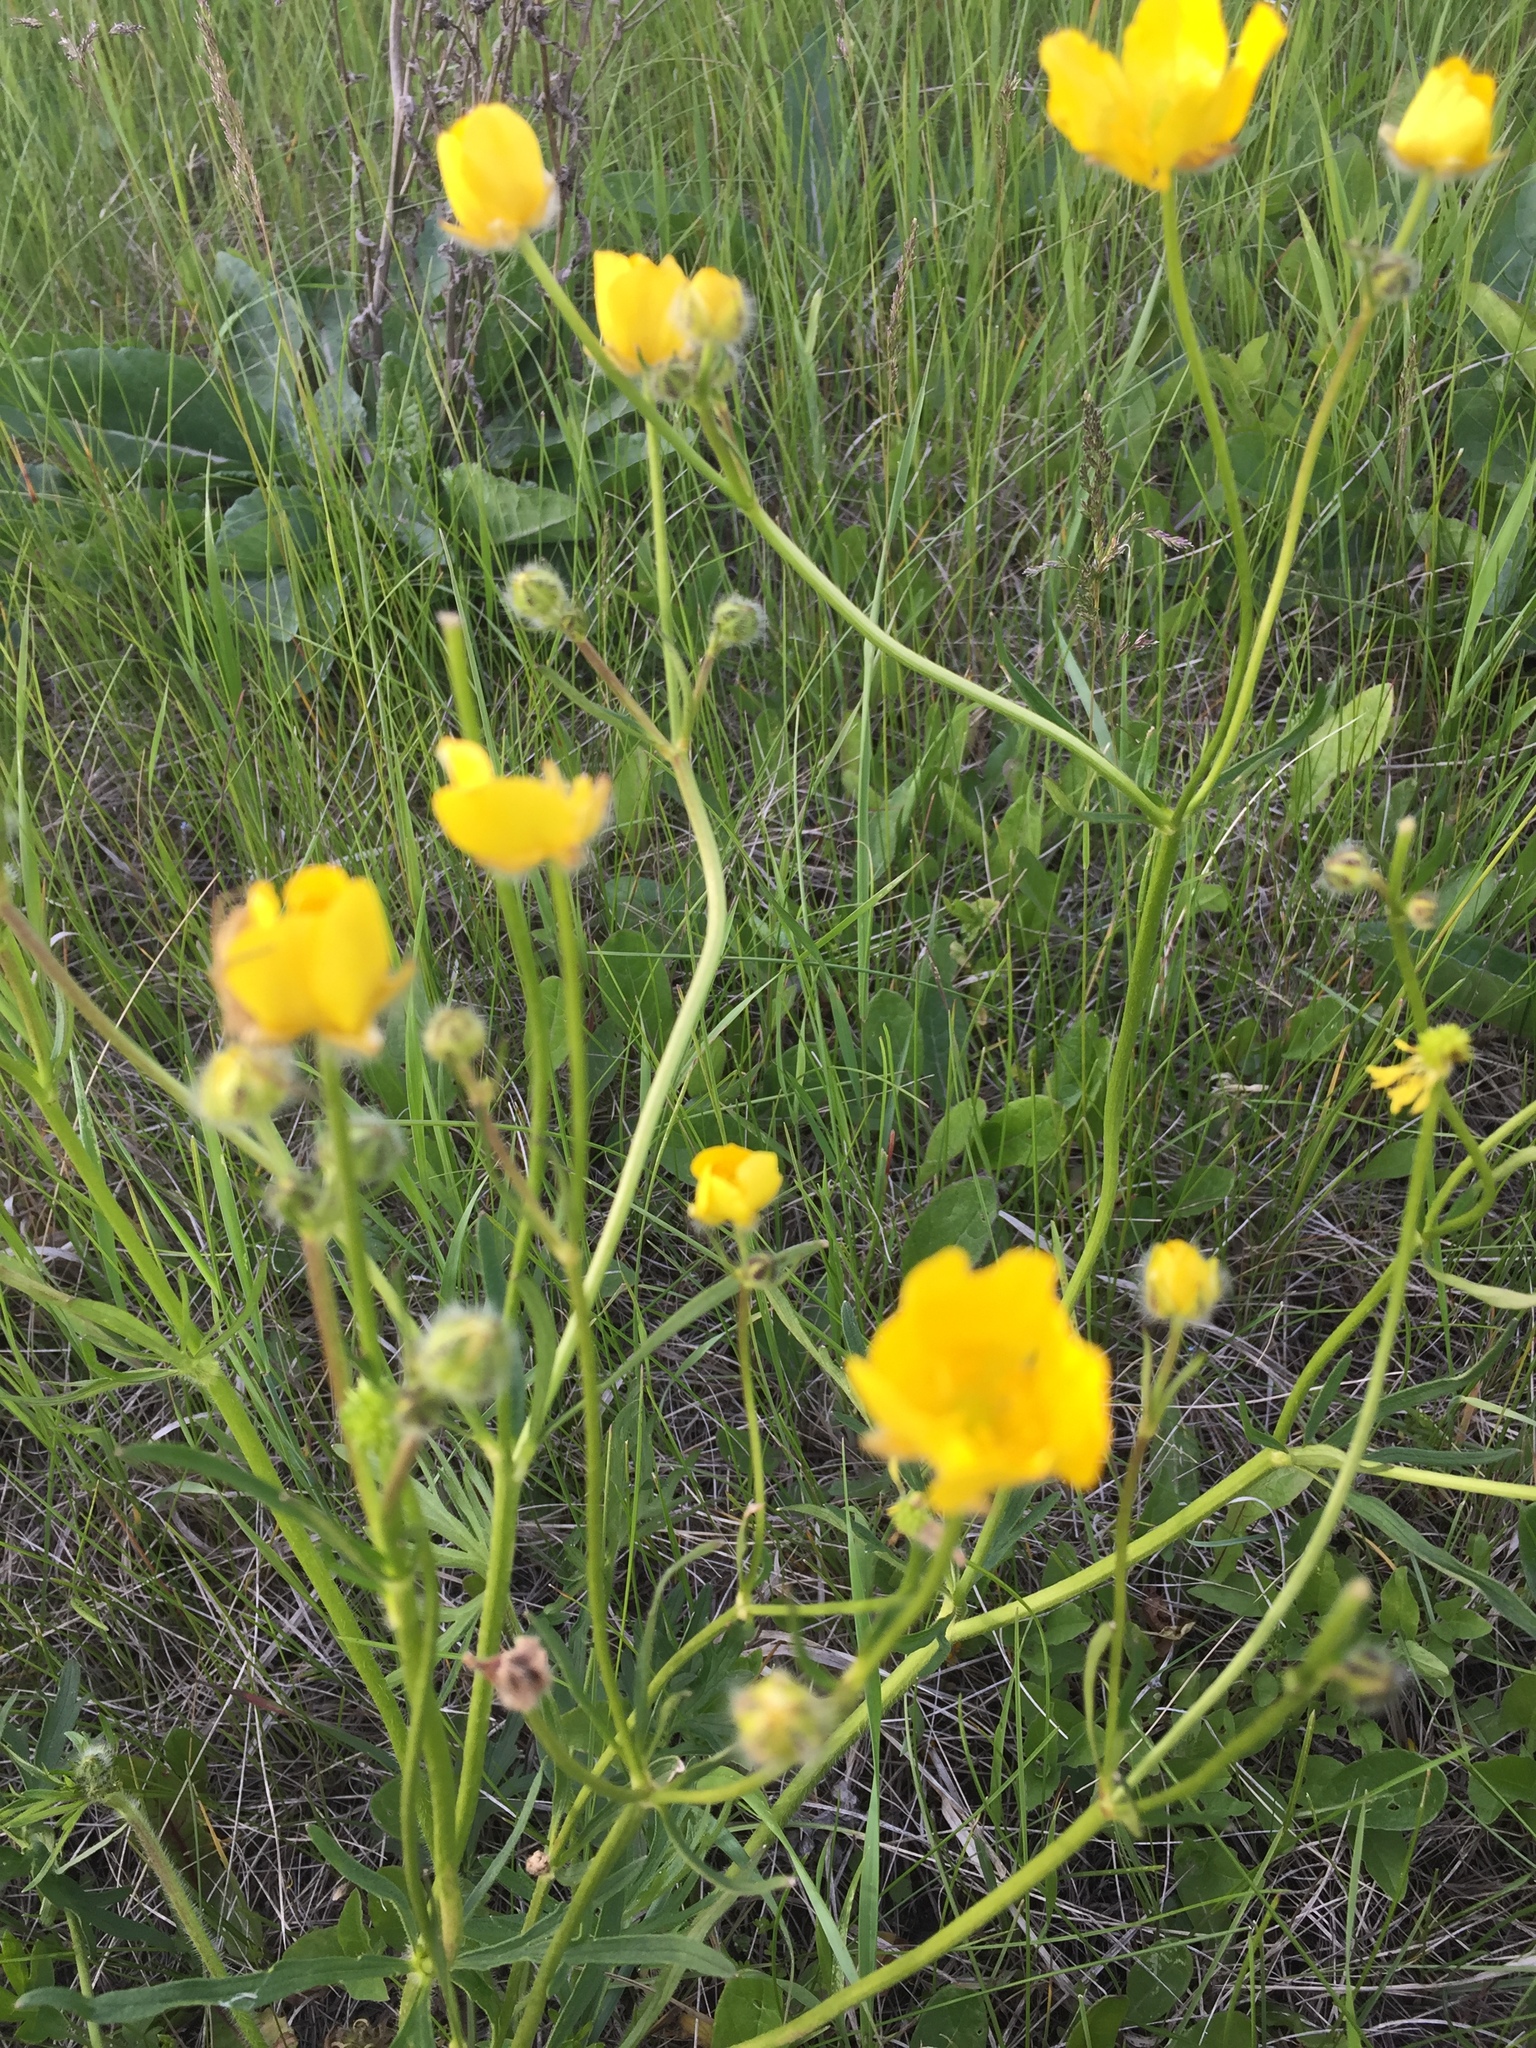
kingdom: Plantae
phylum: Tracheophyta
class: Magnoliopsida
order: Ranunculales
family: Ranunculaceae
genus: Ranunculus
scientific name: Ranunculus polyanthemos
